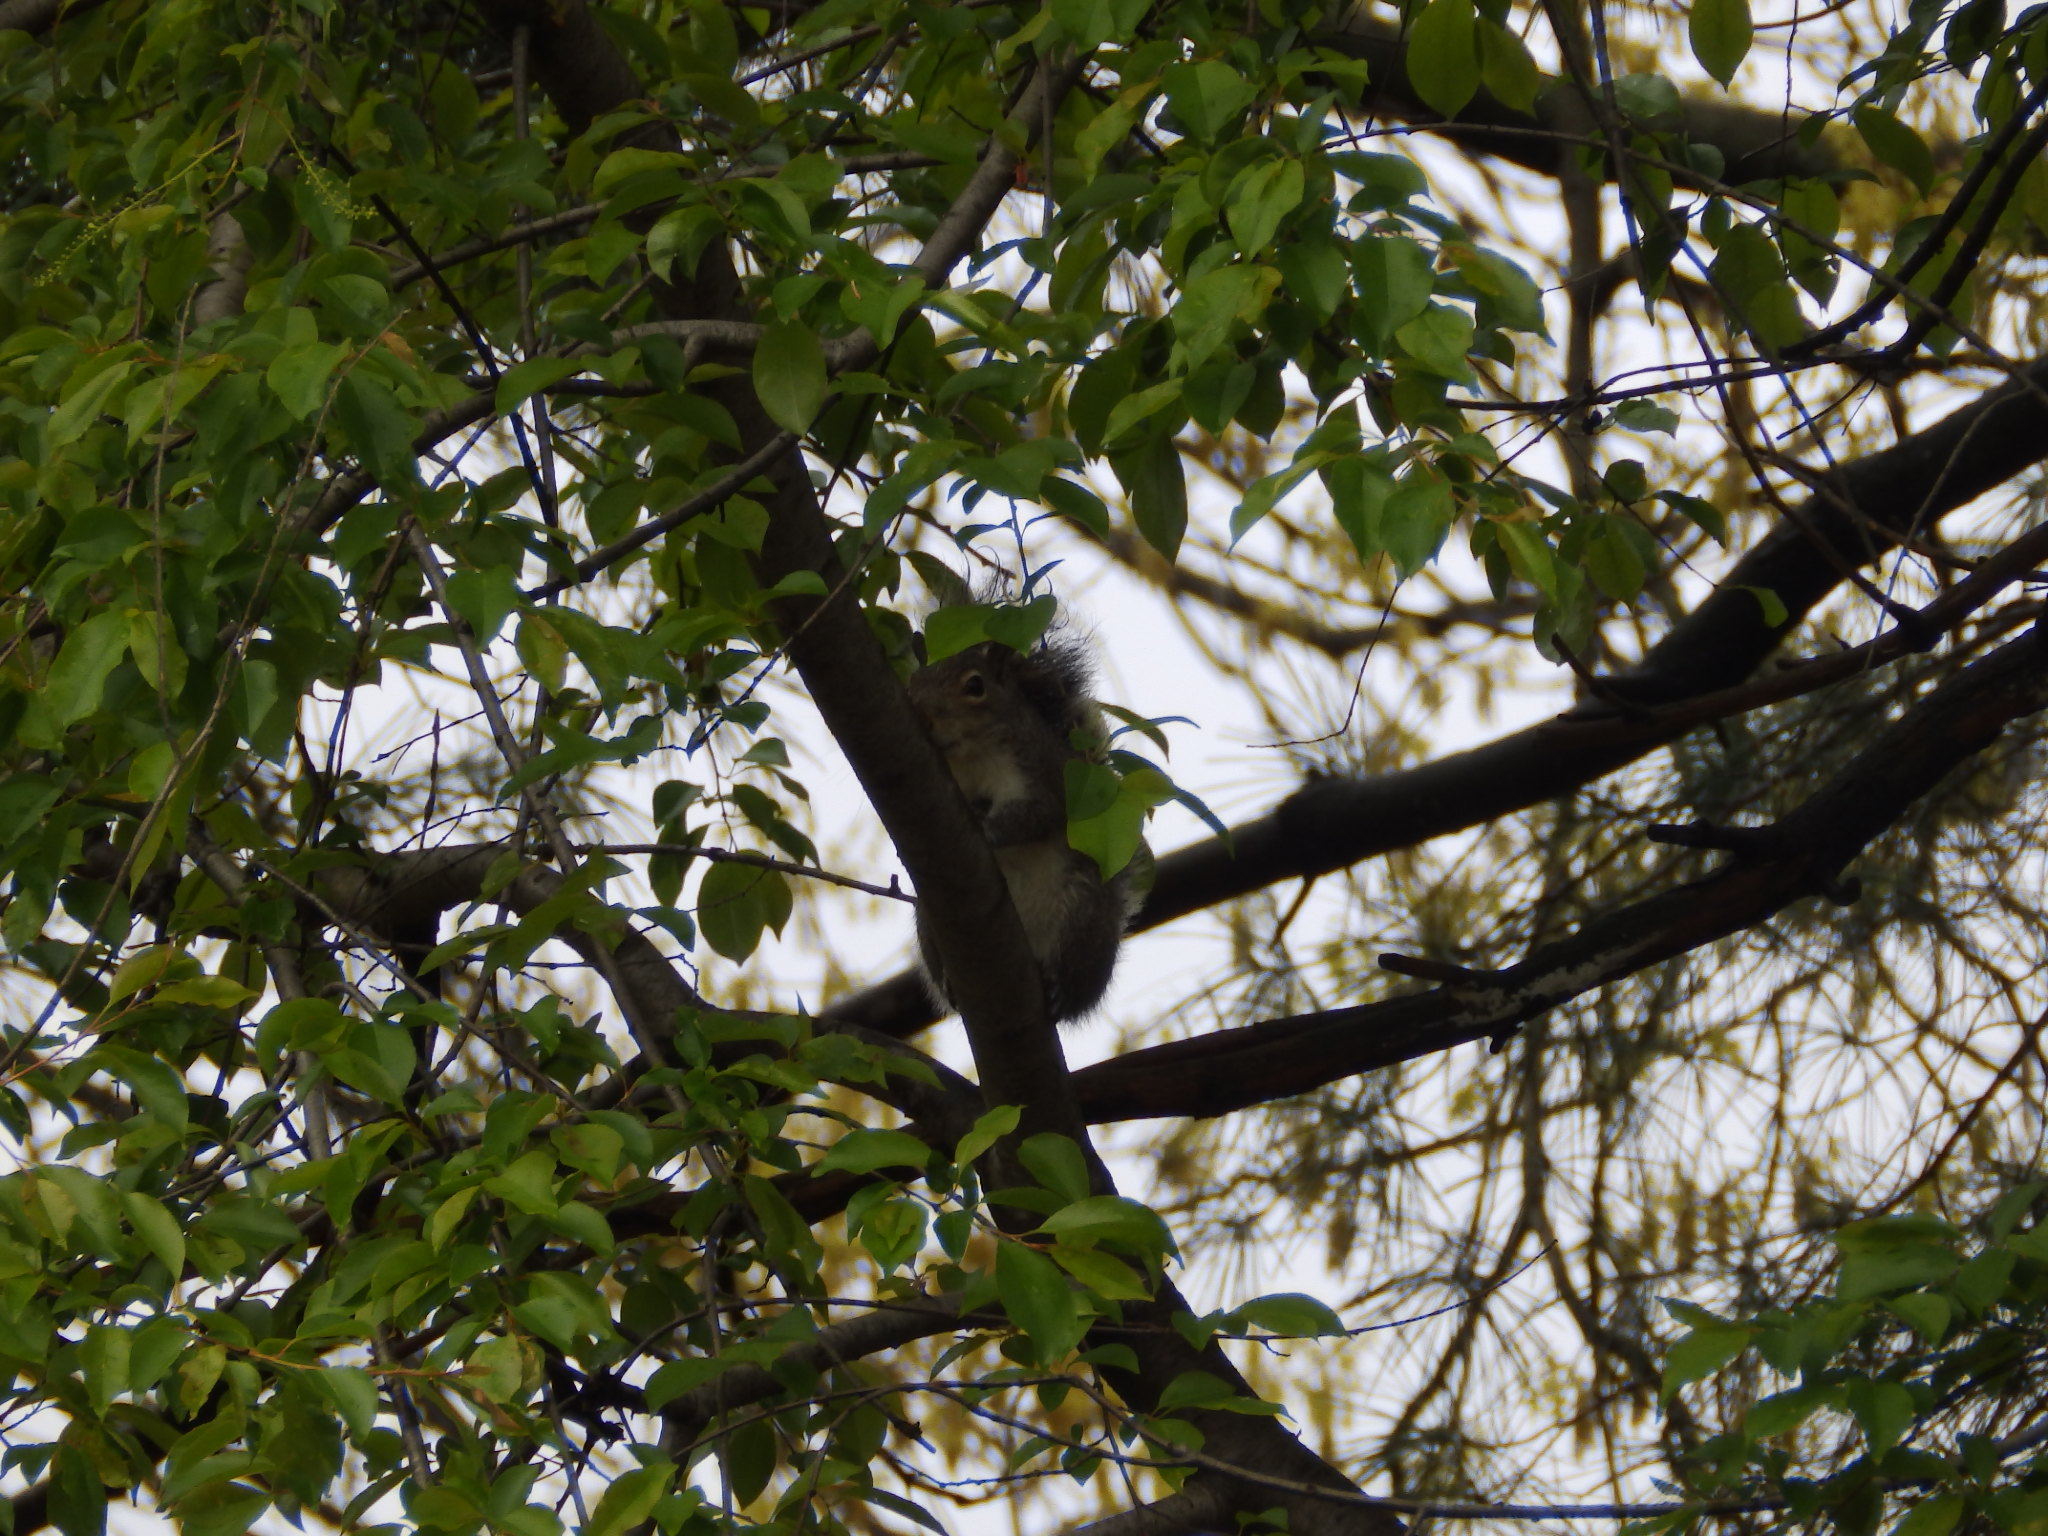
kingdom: Animalia
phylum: Chordata
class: Mammalia
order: Rodentia
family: Sciuridae
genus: Sciurus
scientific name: Sciurus carolinensis
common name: Eastern gray squirrel
